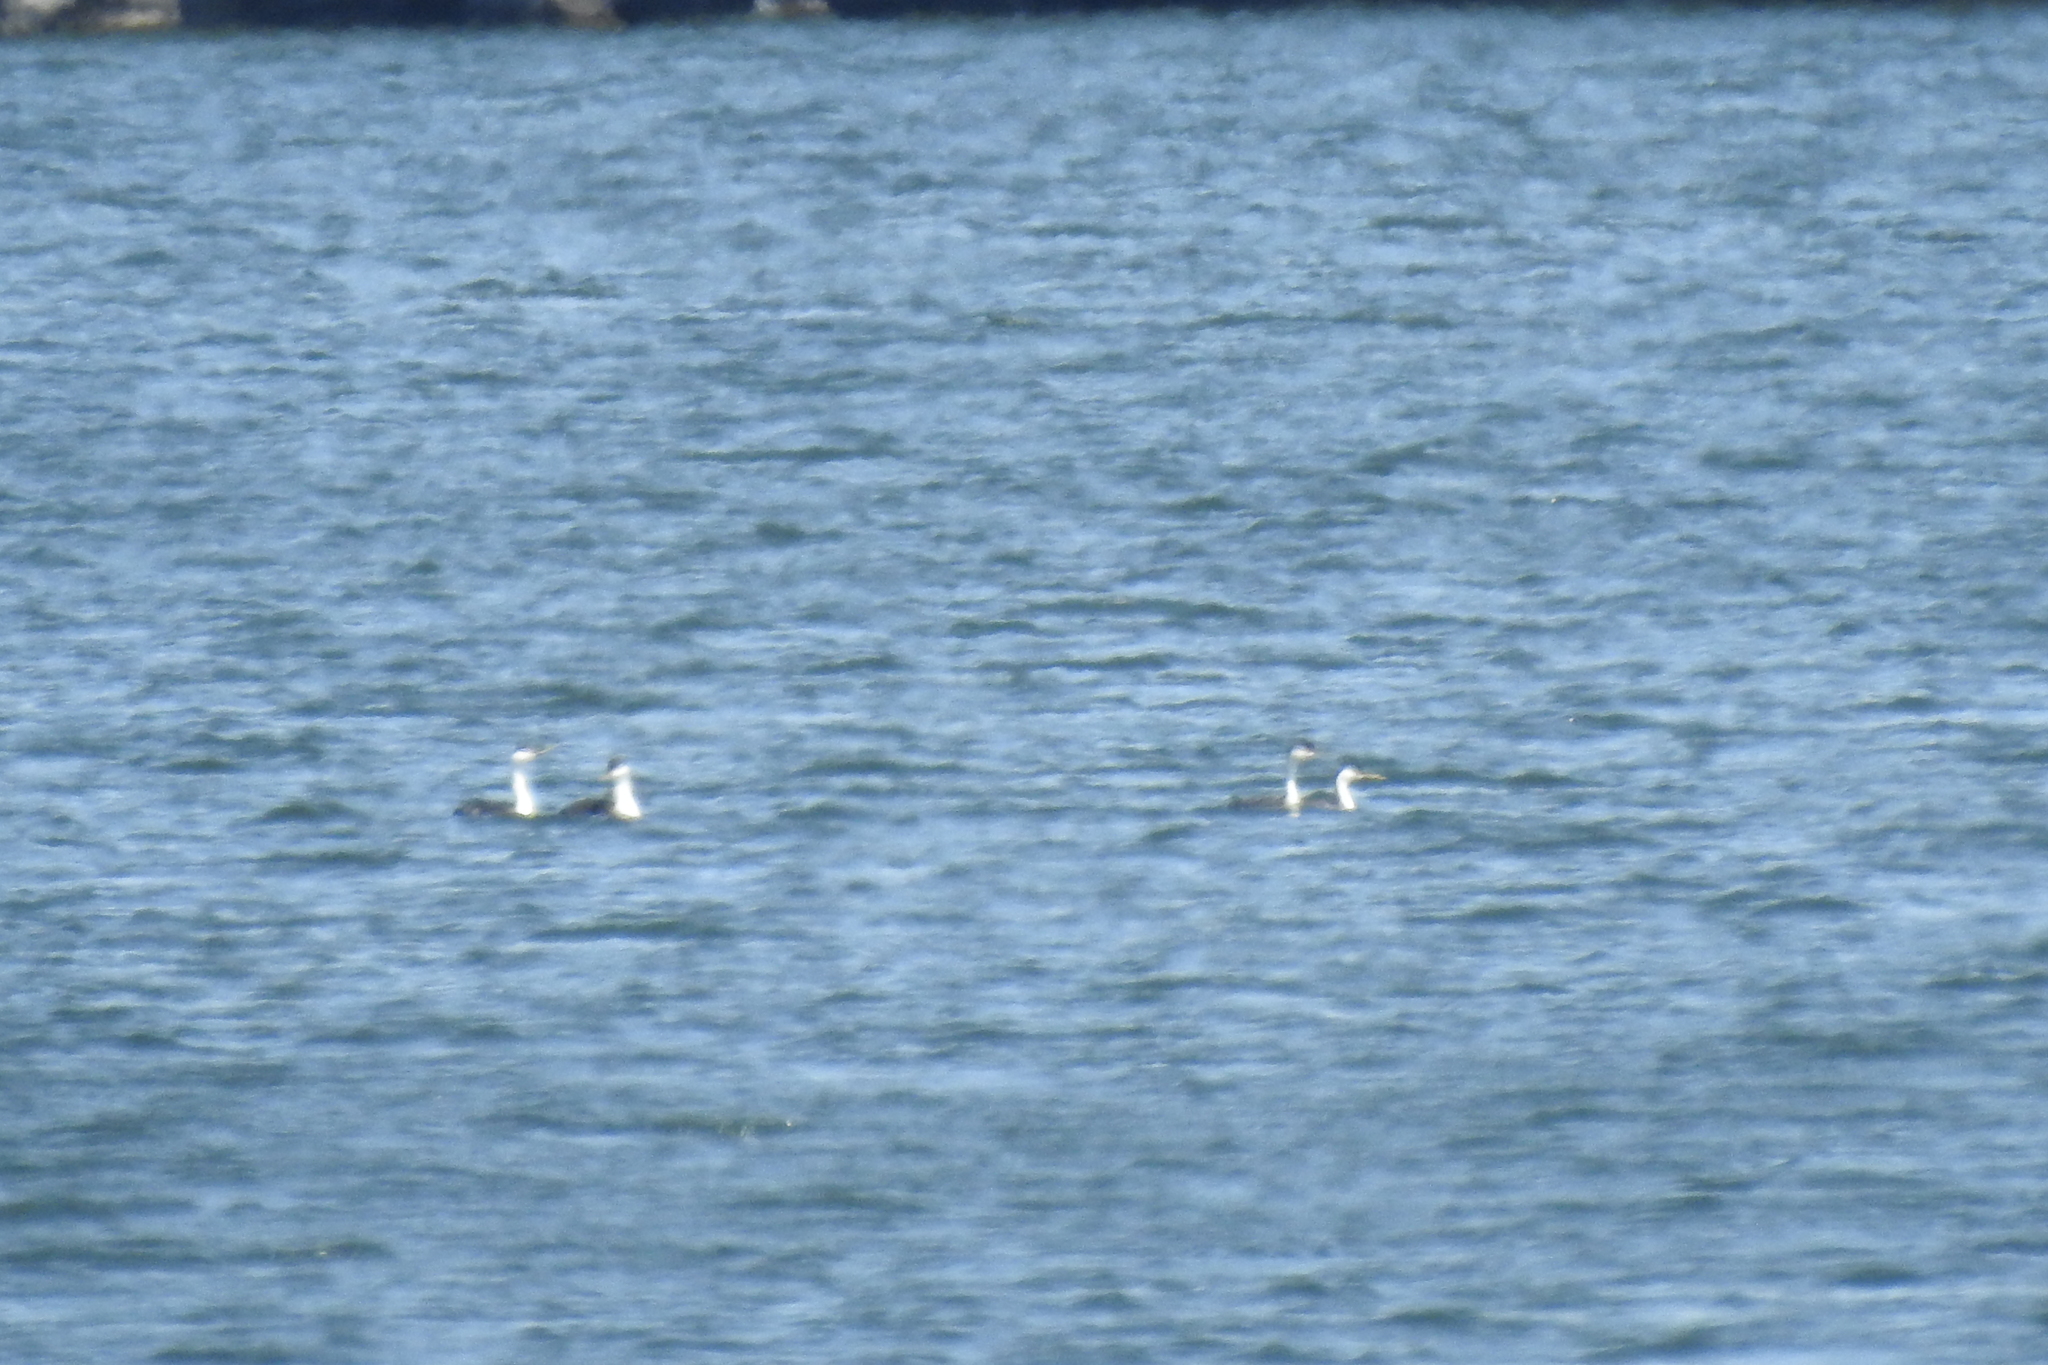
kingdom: Animalia
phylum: Chordata
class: Aves
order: Podicipediformes
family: Podicipedidae
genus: Aechmophorus
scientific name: Aechmophorus occidentalis
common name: Western grebe
